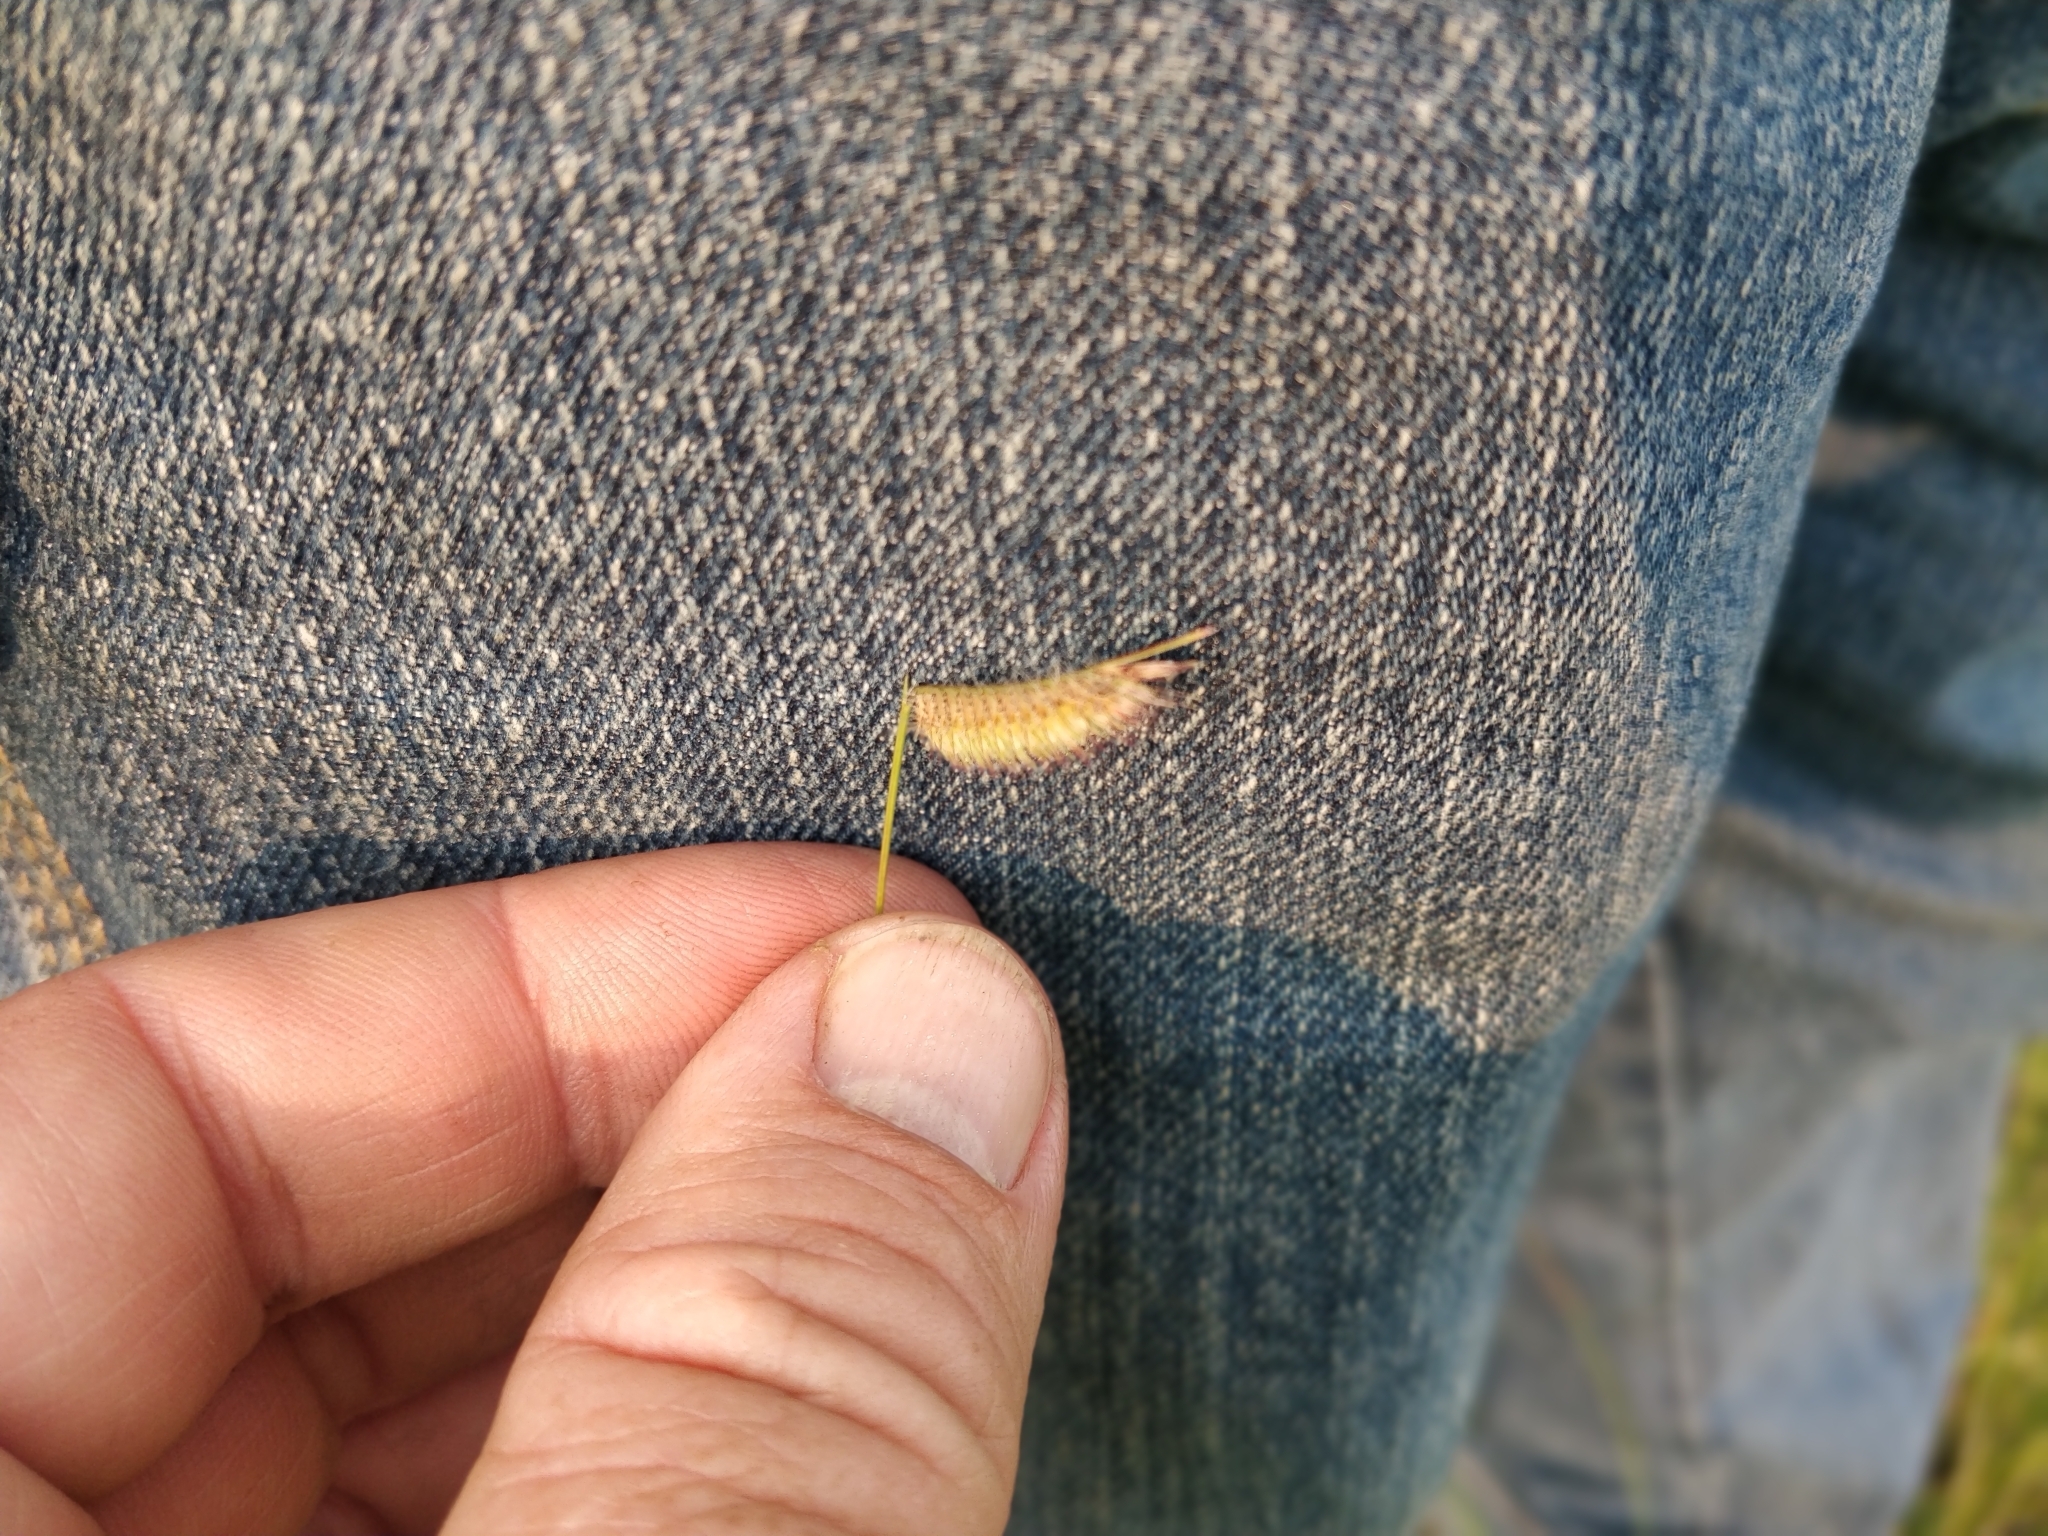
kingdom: Plantae
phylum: Tracheophyta
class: Liliopsida
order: Poales
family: Poaceae
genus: Bouteloua
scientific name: Bouteloua hirsuta
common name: Hairy grama
